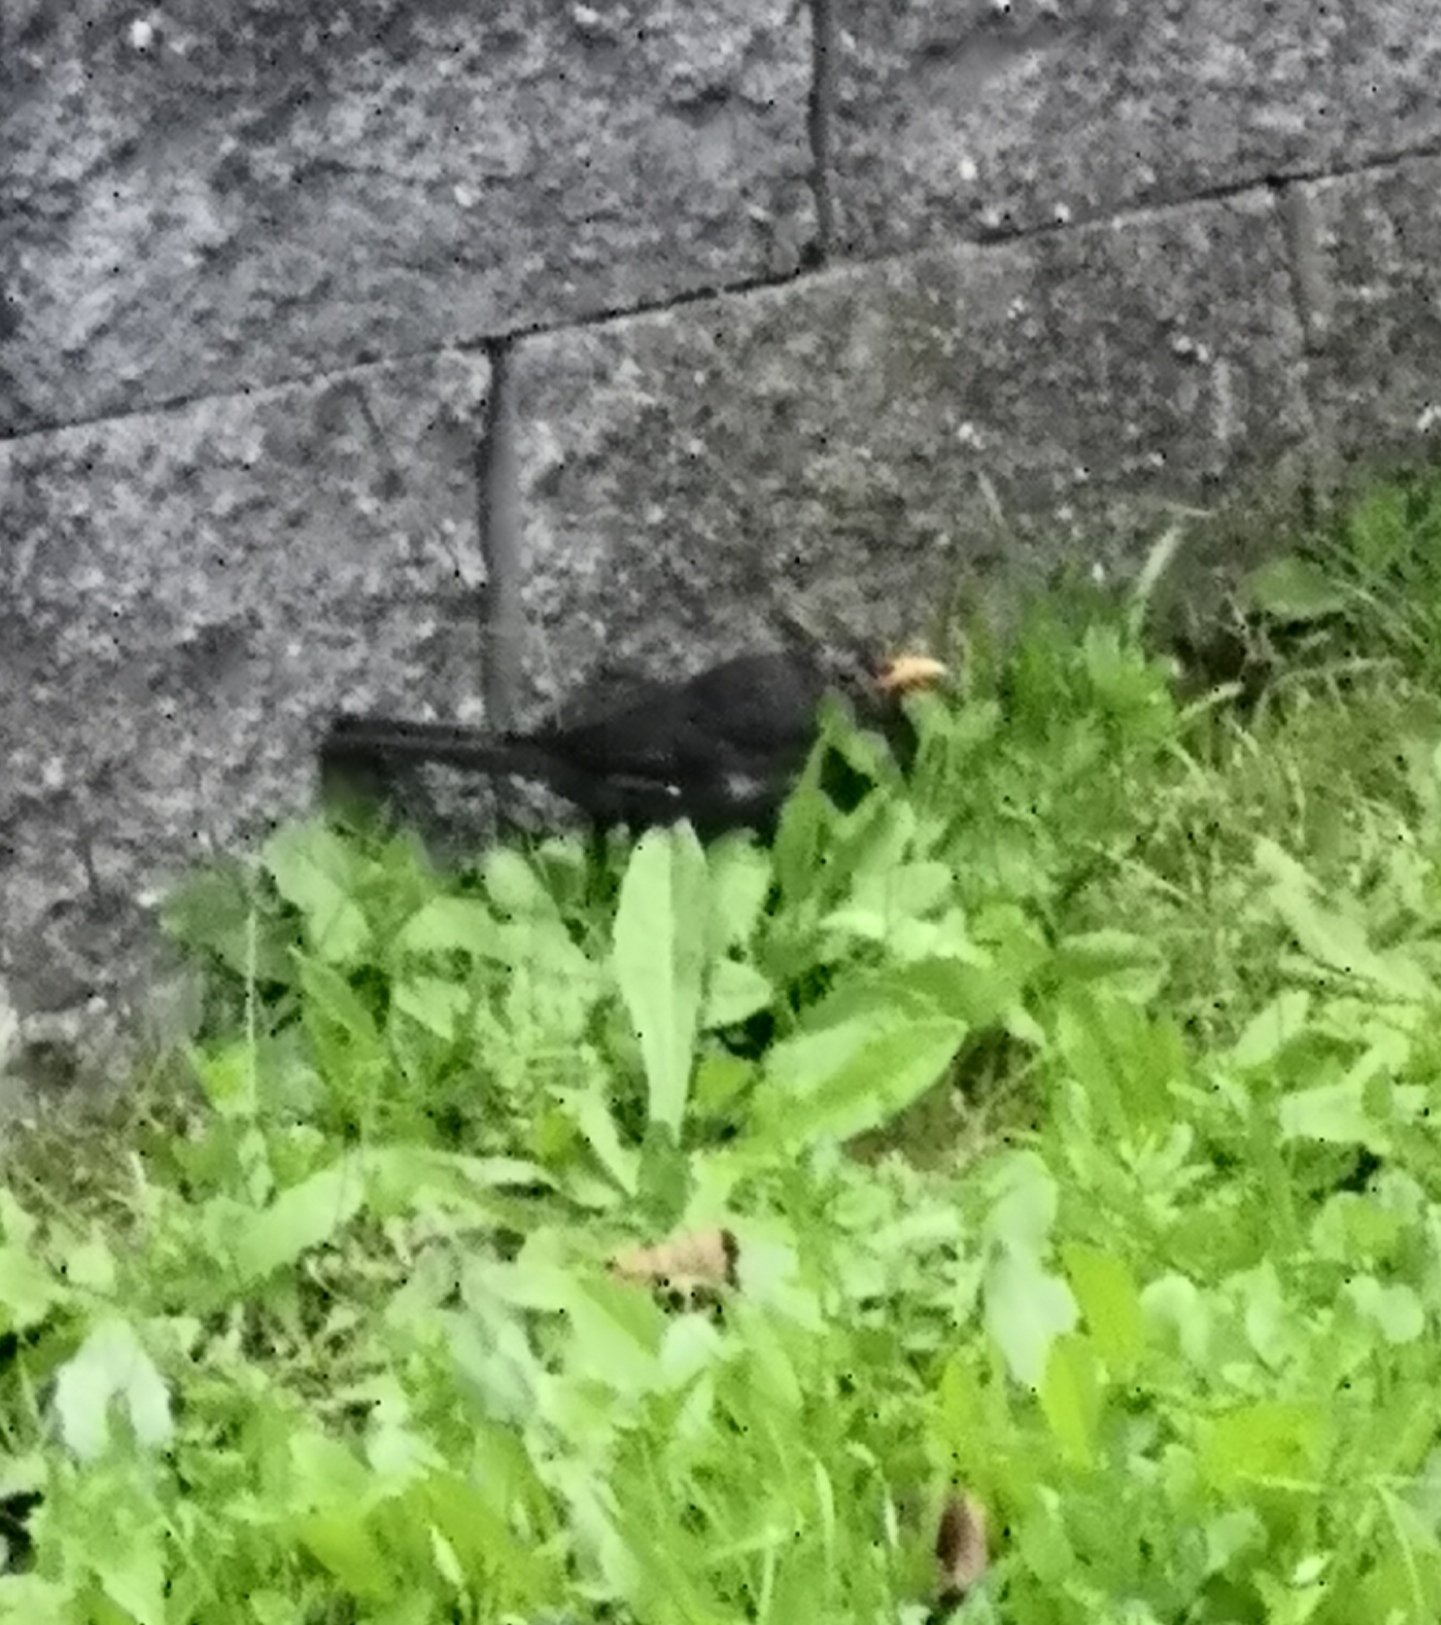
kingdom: Animalia
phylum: Chordata
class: Aves
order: Passeriformes
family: Turdidae
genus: Turdus
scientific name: Turdus merula
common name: Common blackbird
